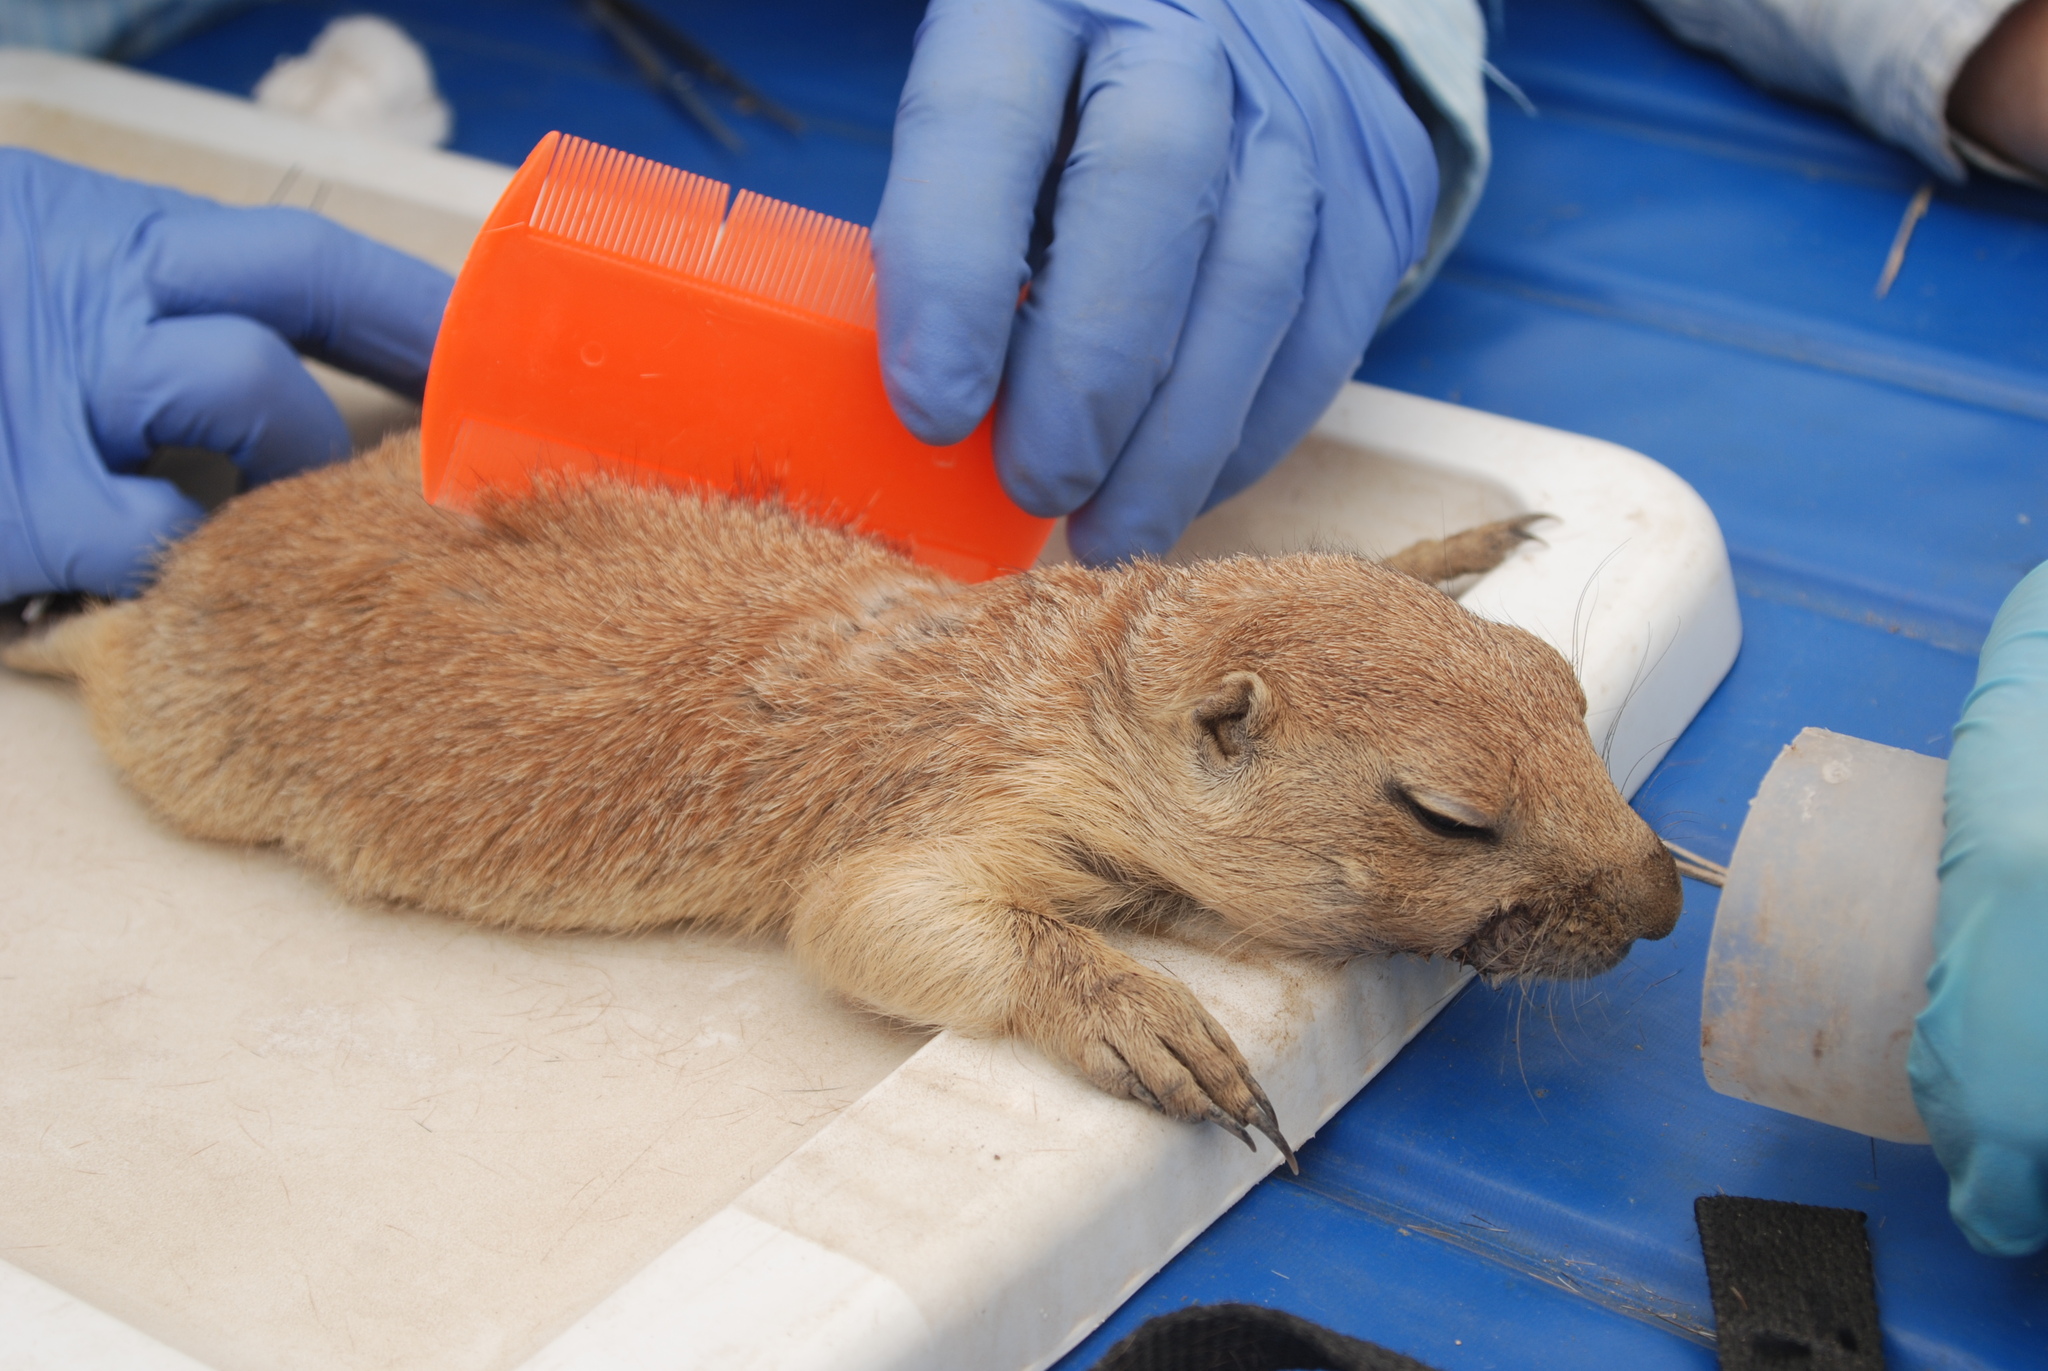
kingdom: Animalia
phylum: Chordata
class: Mammalia
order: Rodentia
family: Sciuridae
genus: Cynomys
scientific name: Cynomys ludovicianus
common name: Black-tailed prairie dog
